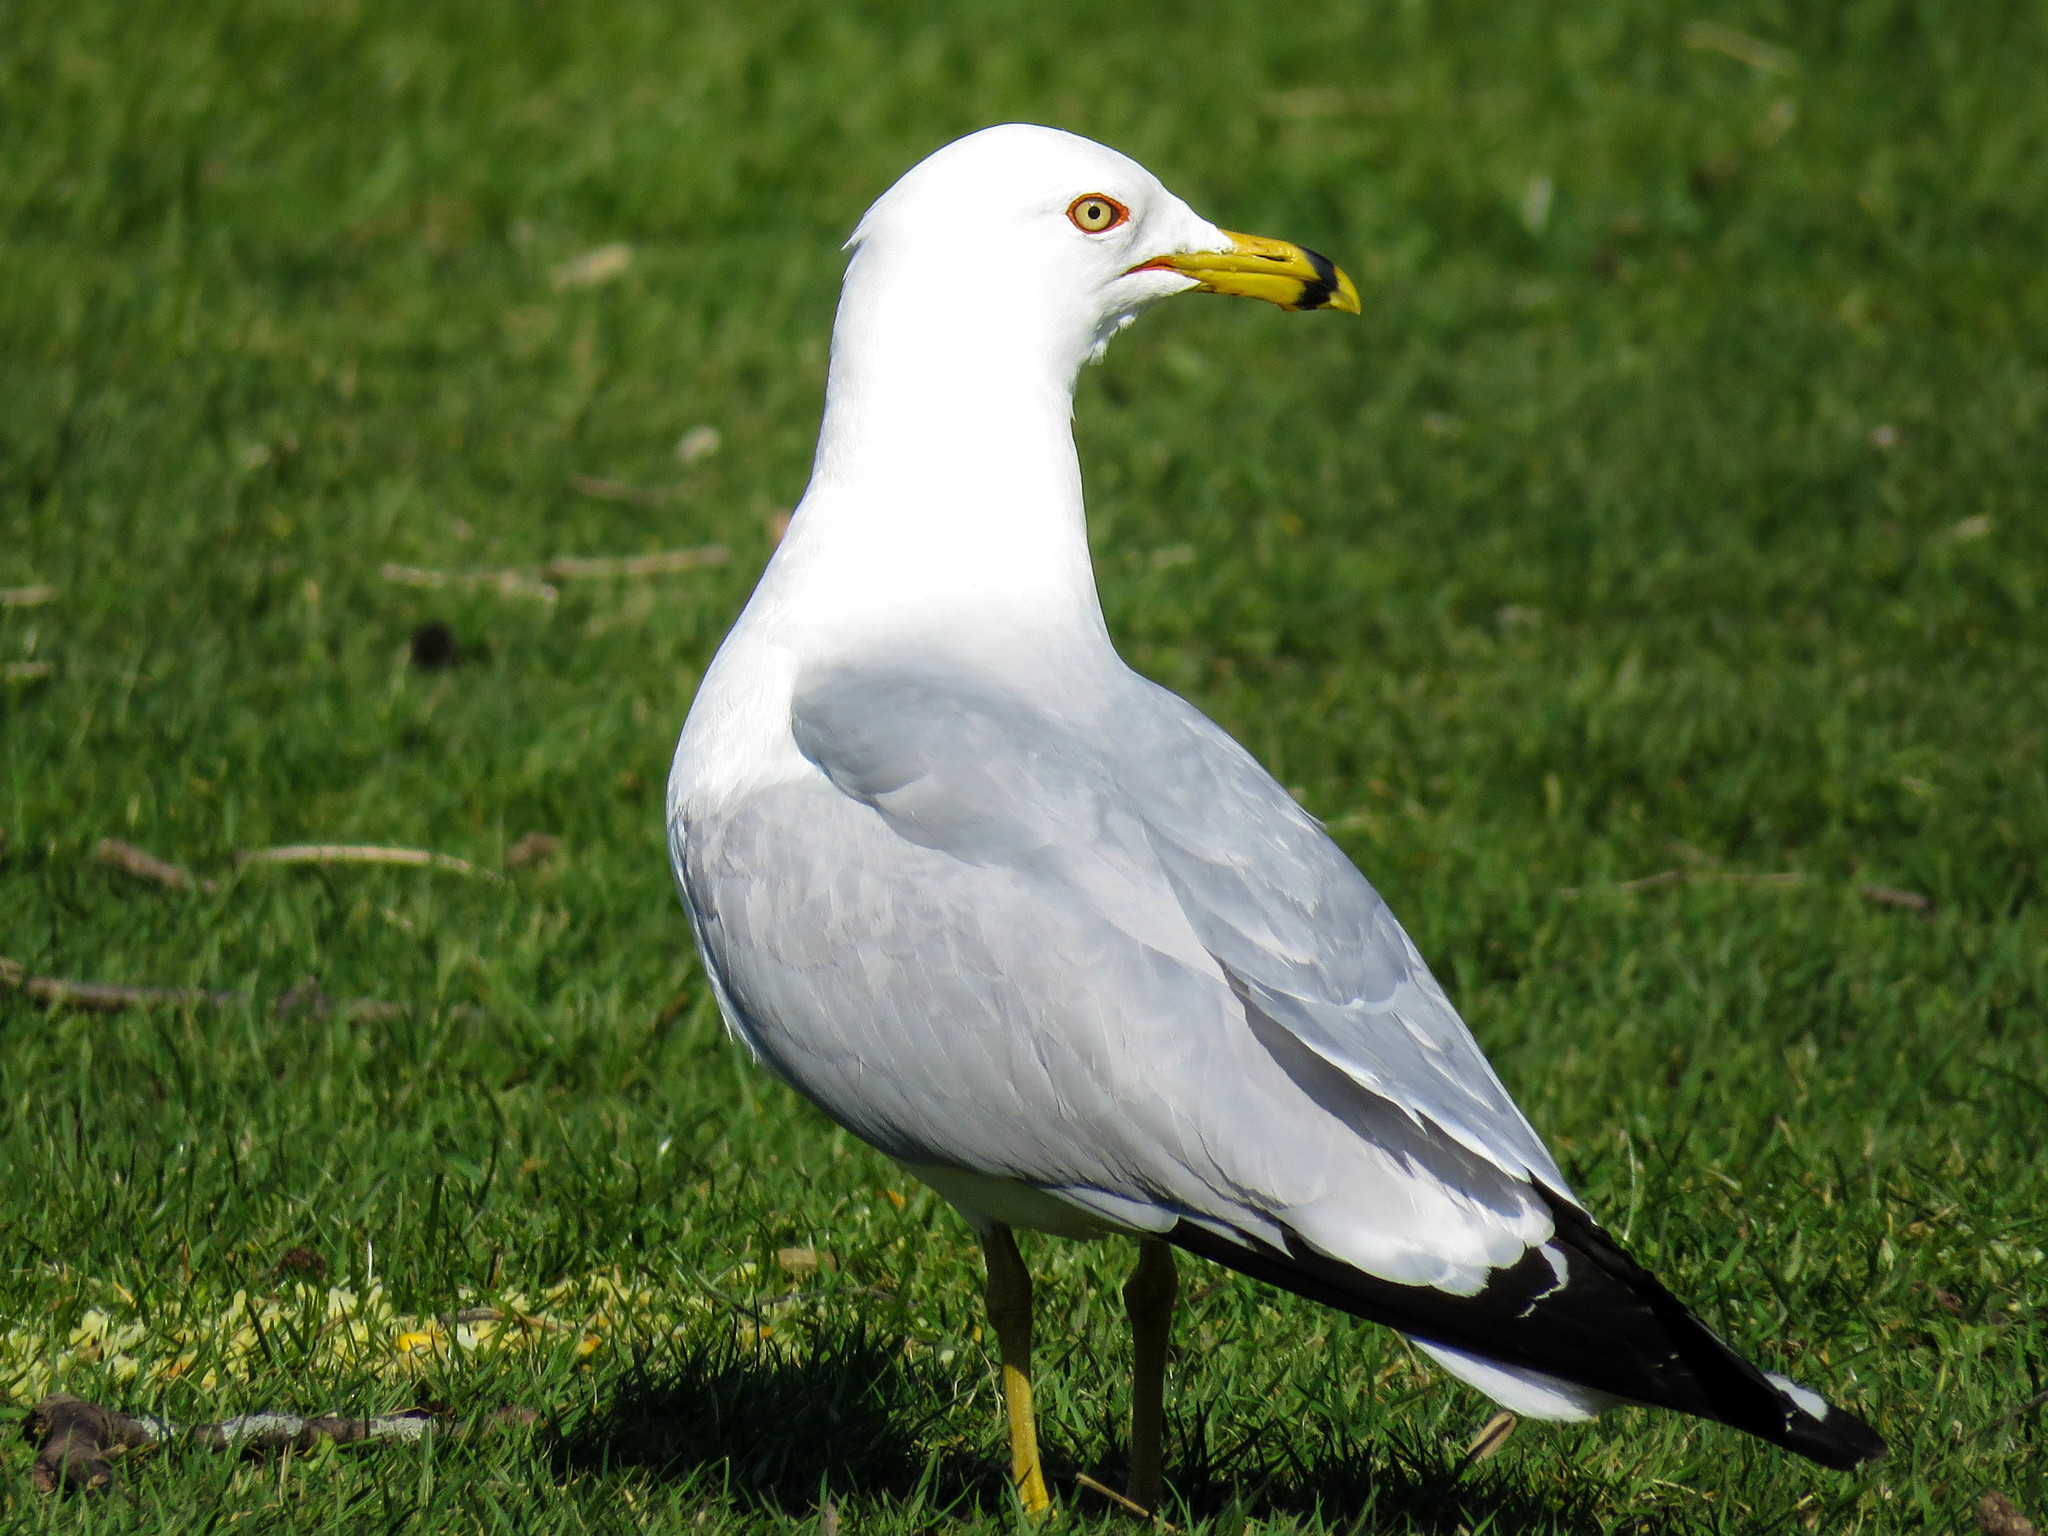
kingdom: Animalia
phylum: Chordata
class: Aves
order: Charadriiformes
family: Laridae
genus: Larus
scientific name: Larus delawarensis
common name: Ring-billed gull
